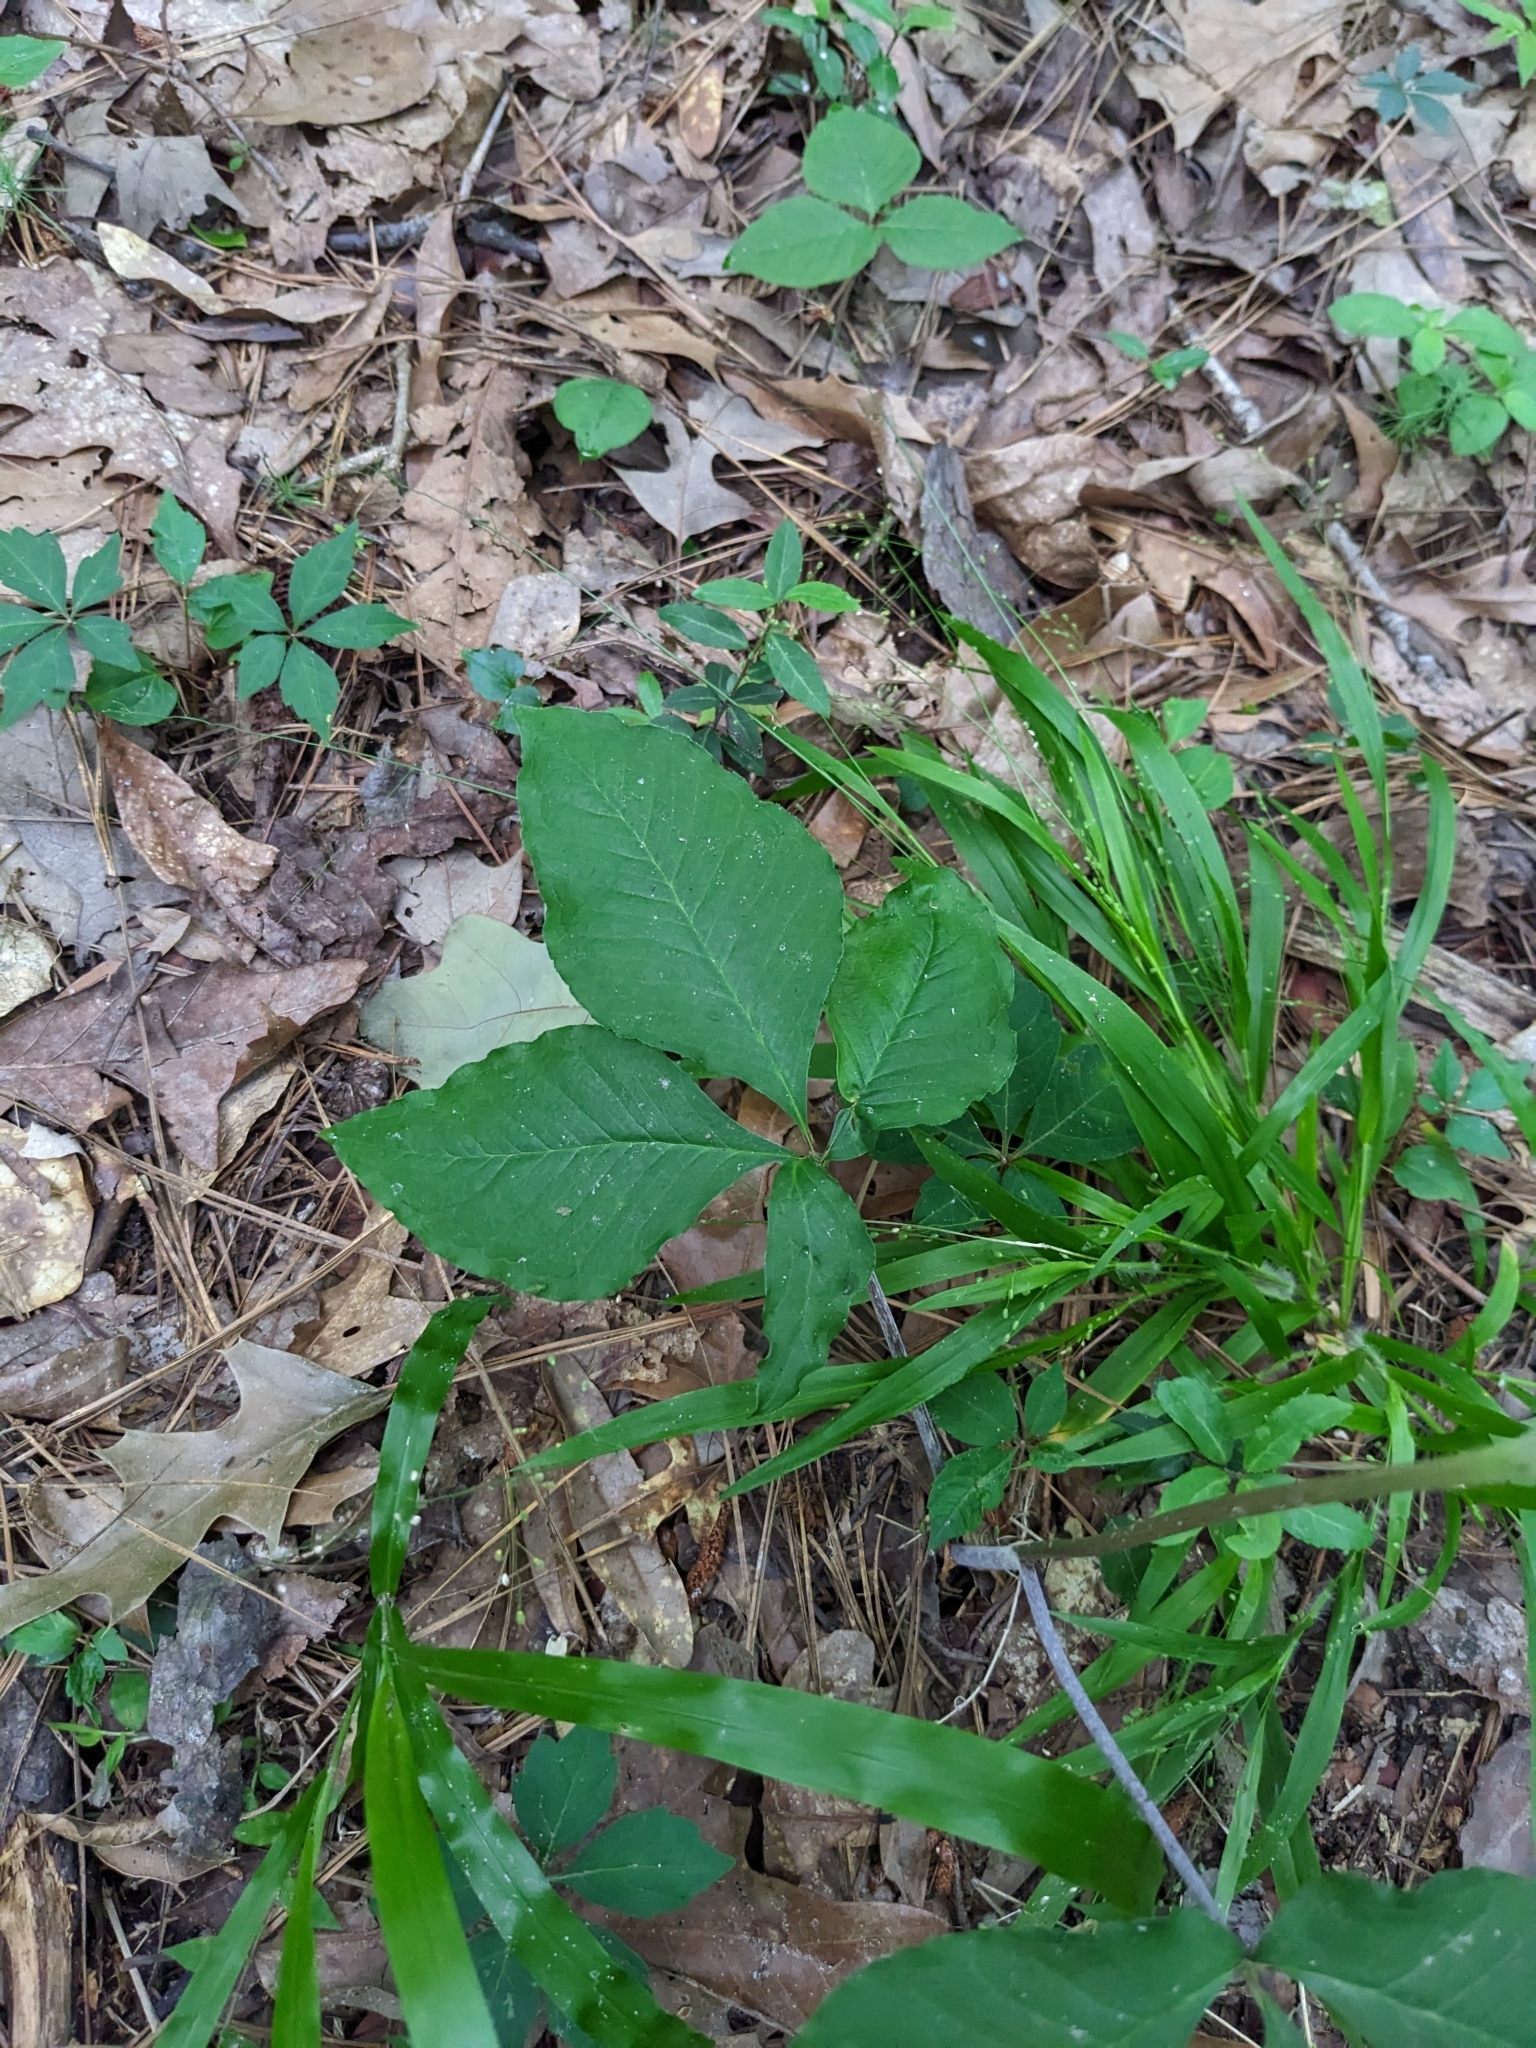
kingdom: Plantae
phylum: Tracheophyta
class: Liliopsida
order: Alismatales
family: Araceae
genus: Arisaema
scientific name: Arisaema quinatum
